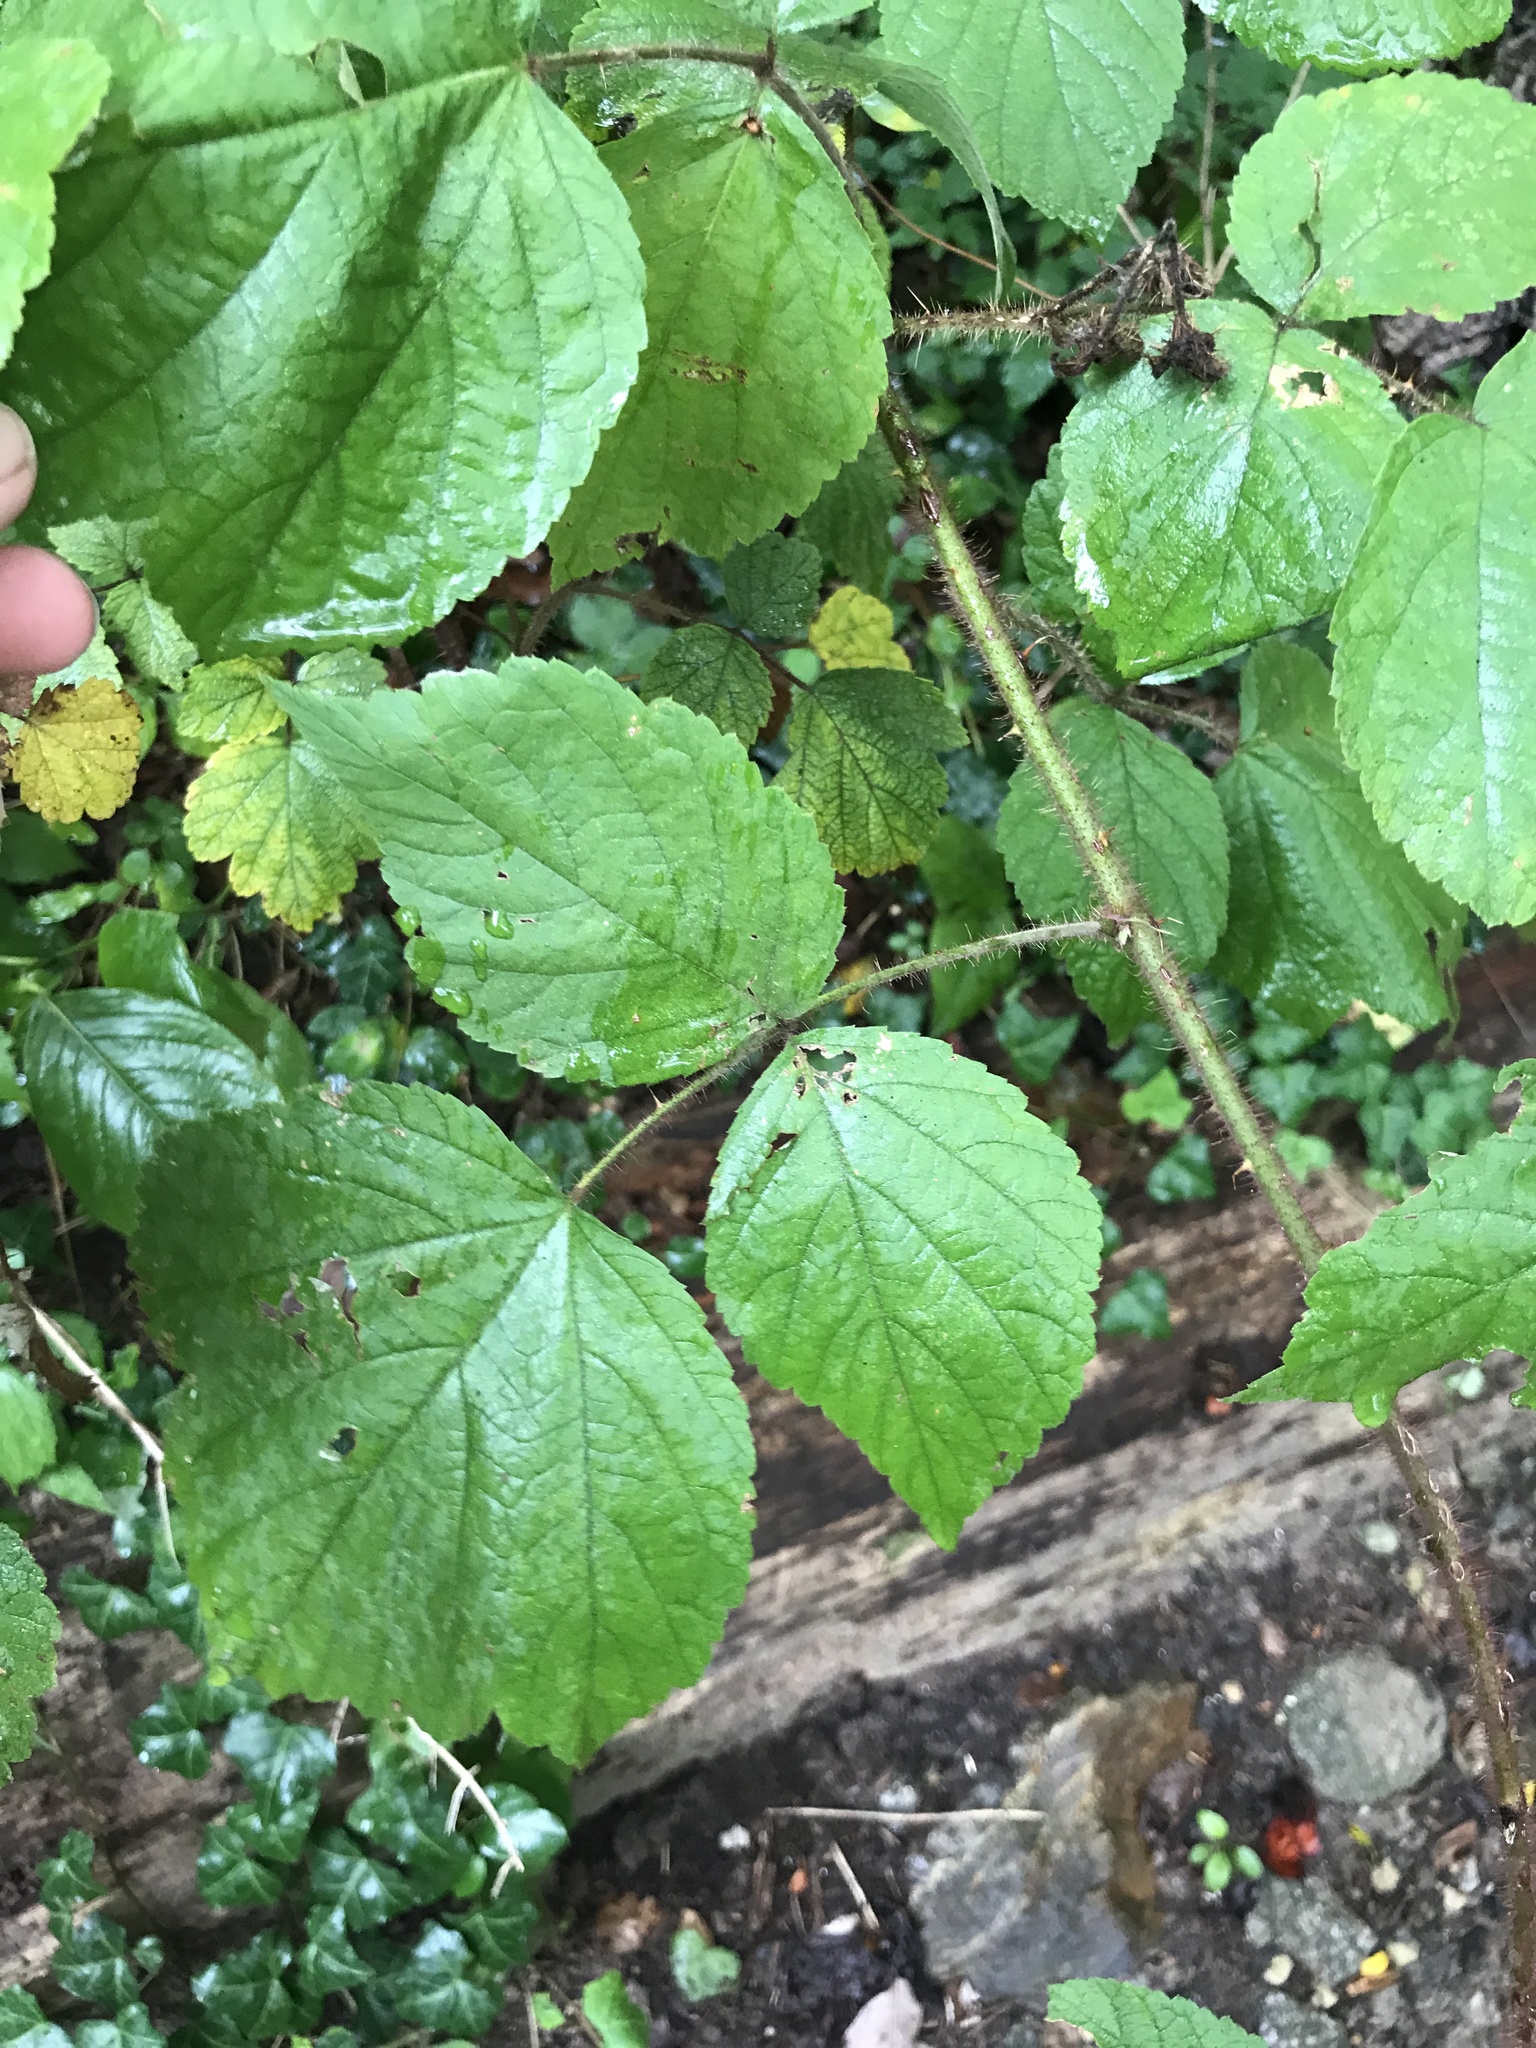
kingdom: Plantae
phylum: Tracheophyta
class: Magnoliopsida
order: Rosales
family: Rosaceae
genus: Rubus
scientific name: Rubus phoenicolasius
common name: Japanese wineberry
